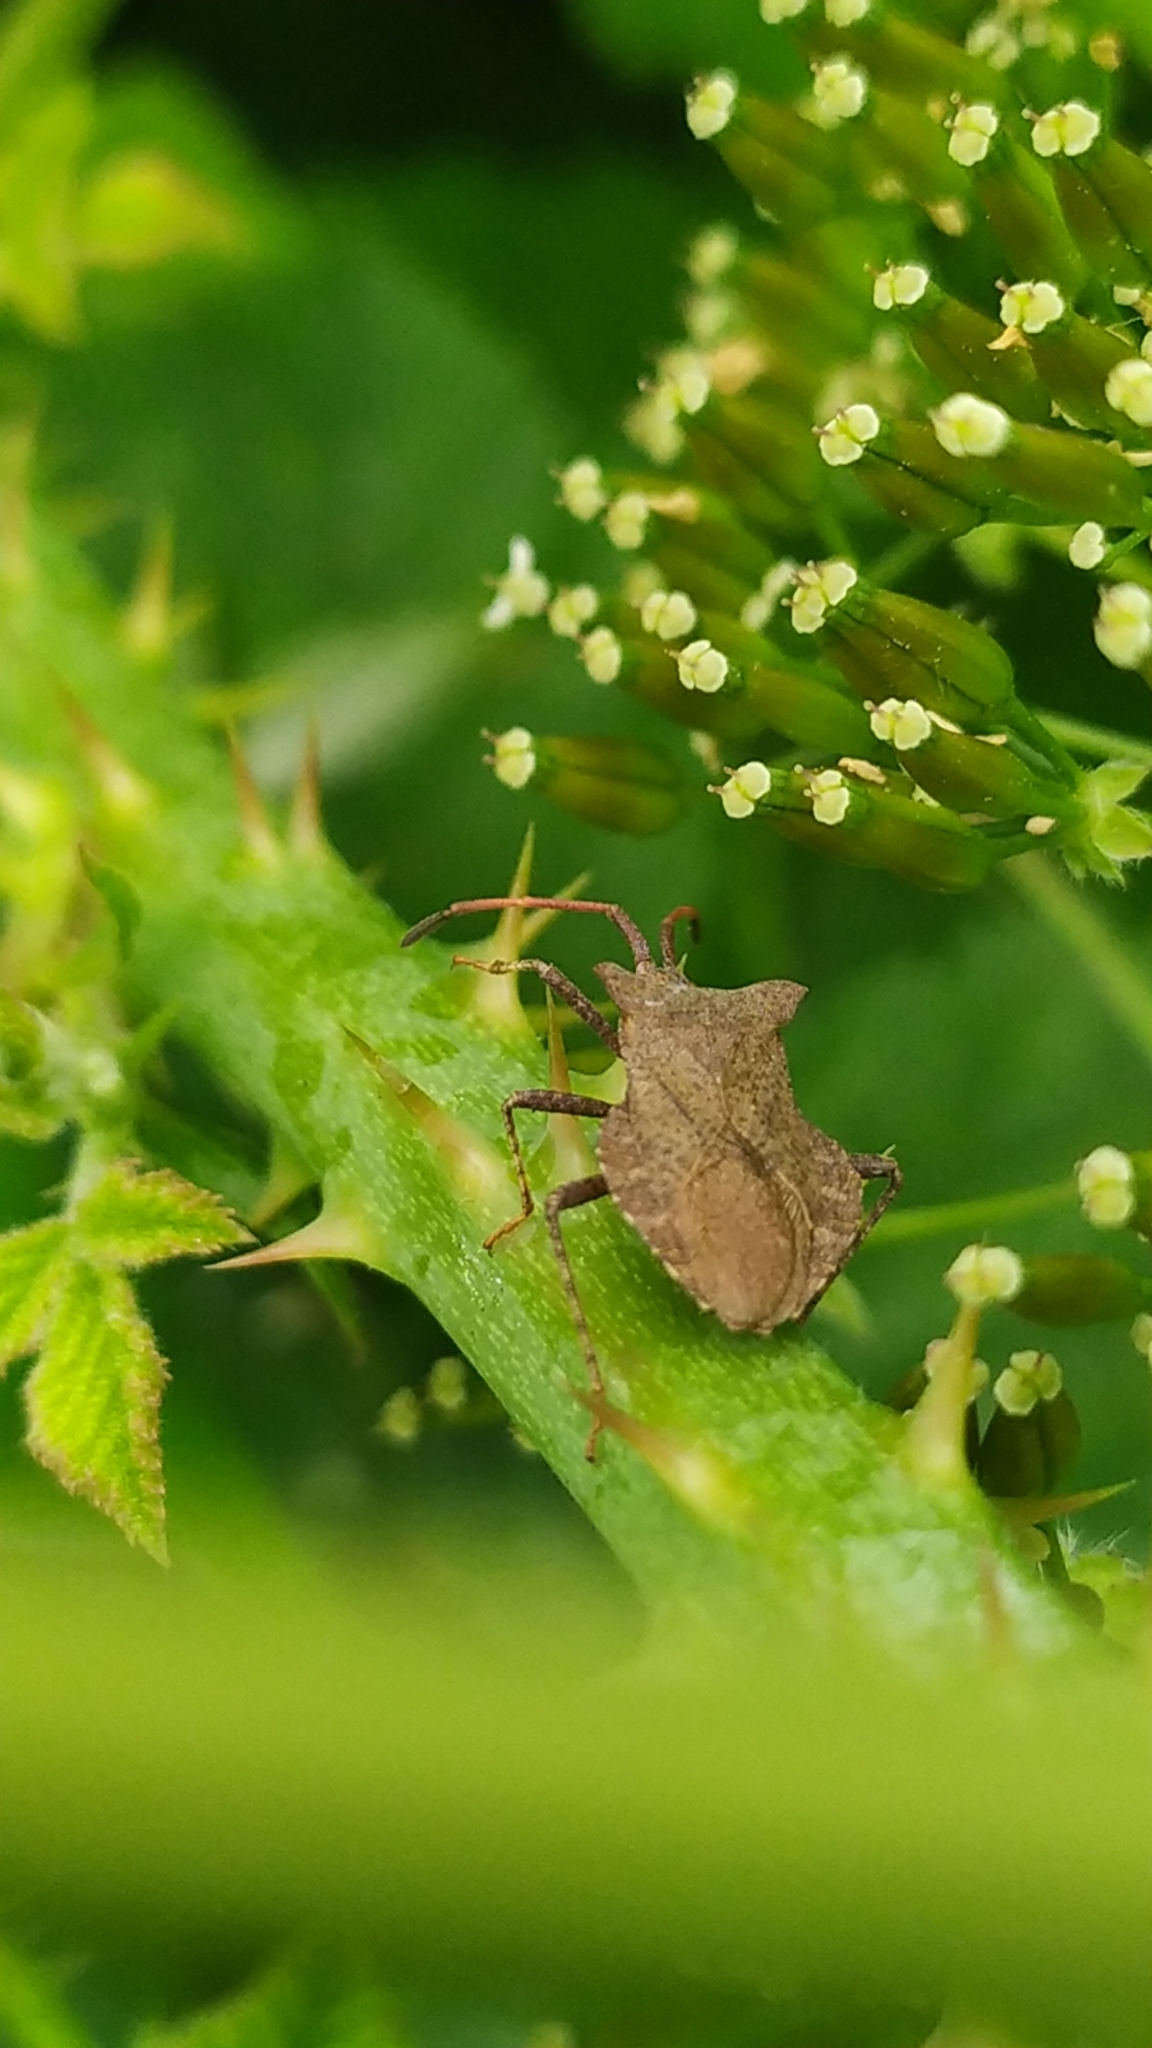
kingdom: Animalia
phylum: Arthropoda
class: Insecta
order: Hemiptera
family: Coreidae
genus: Coreus
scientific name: Coreus marginatus
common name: Dock bug
